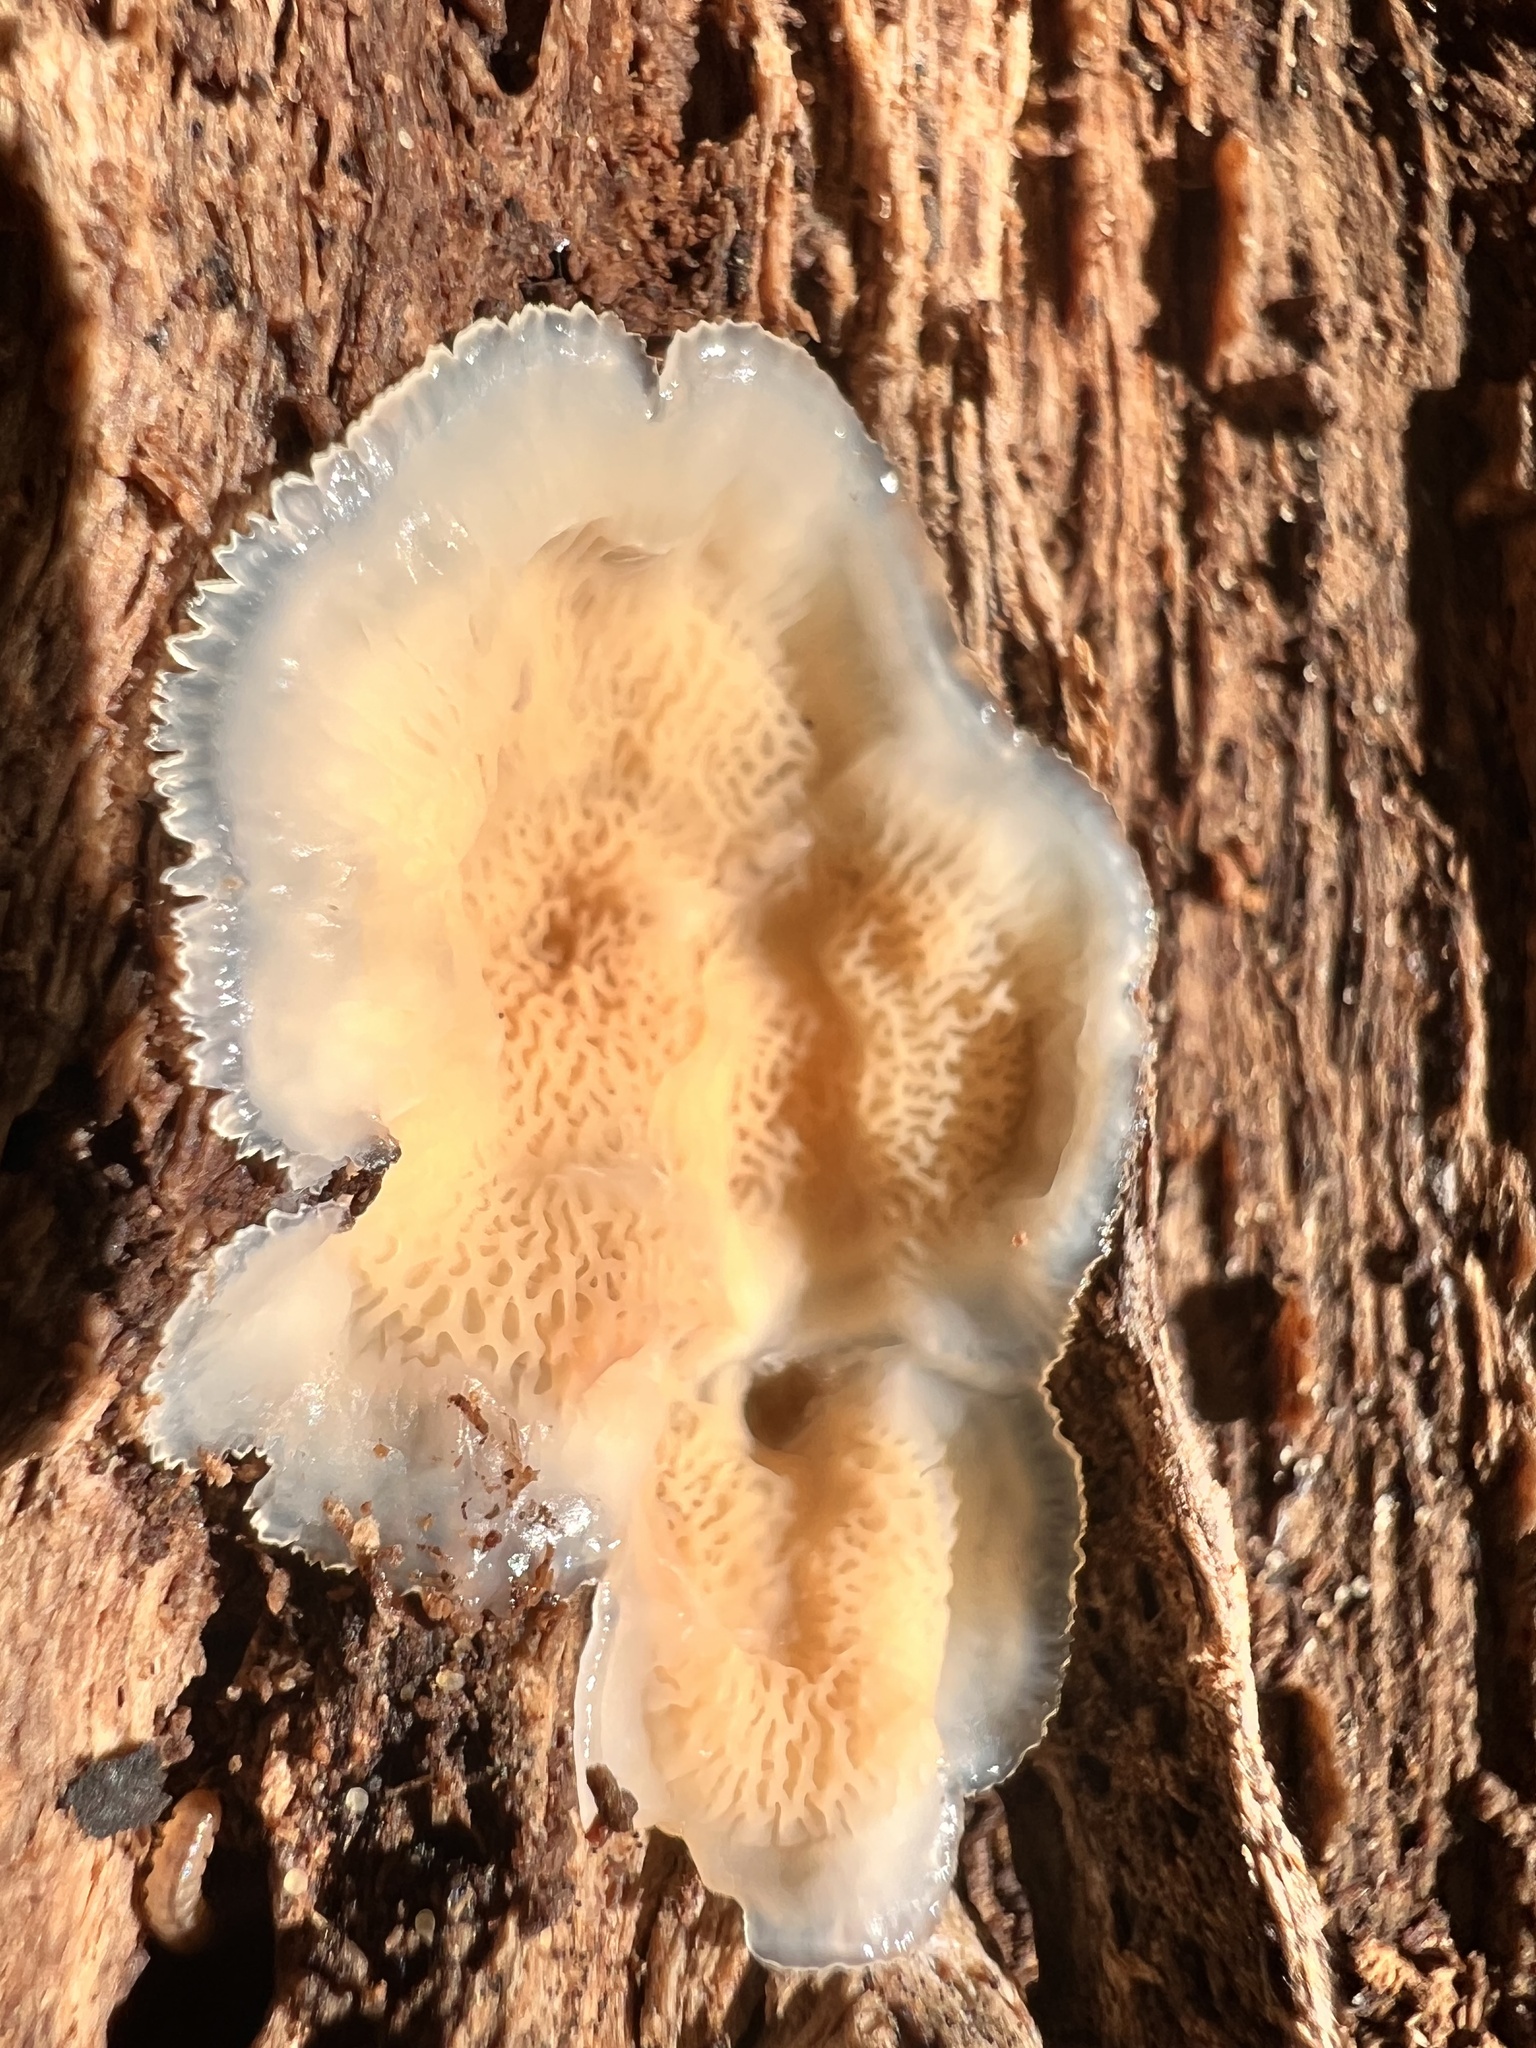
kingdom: Fungi
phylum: Basidiomycota
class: Agaricomycetes
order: Polyporales
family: Meruliaceae
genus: Phlebia
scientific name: Phlebia tremellosa
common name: Jelly rot
